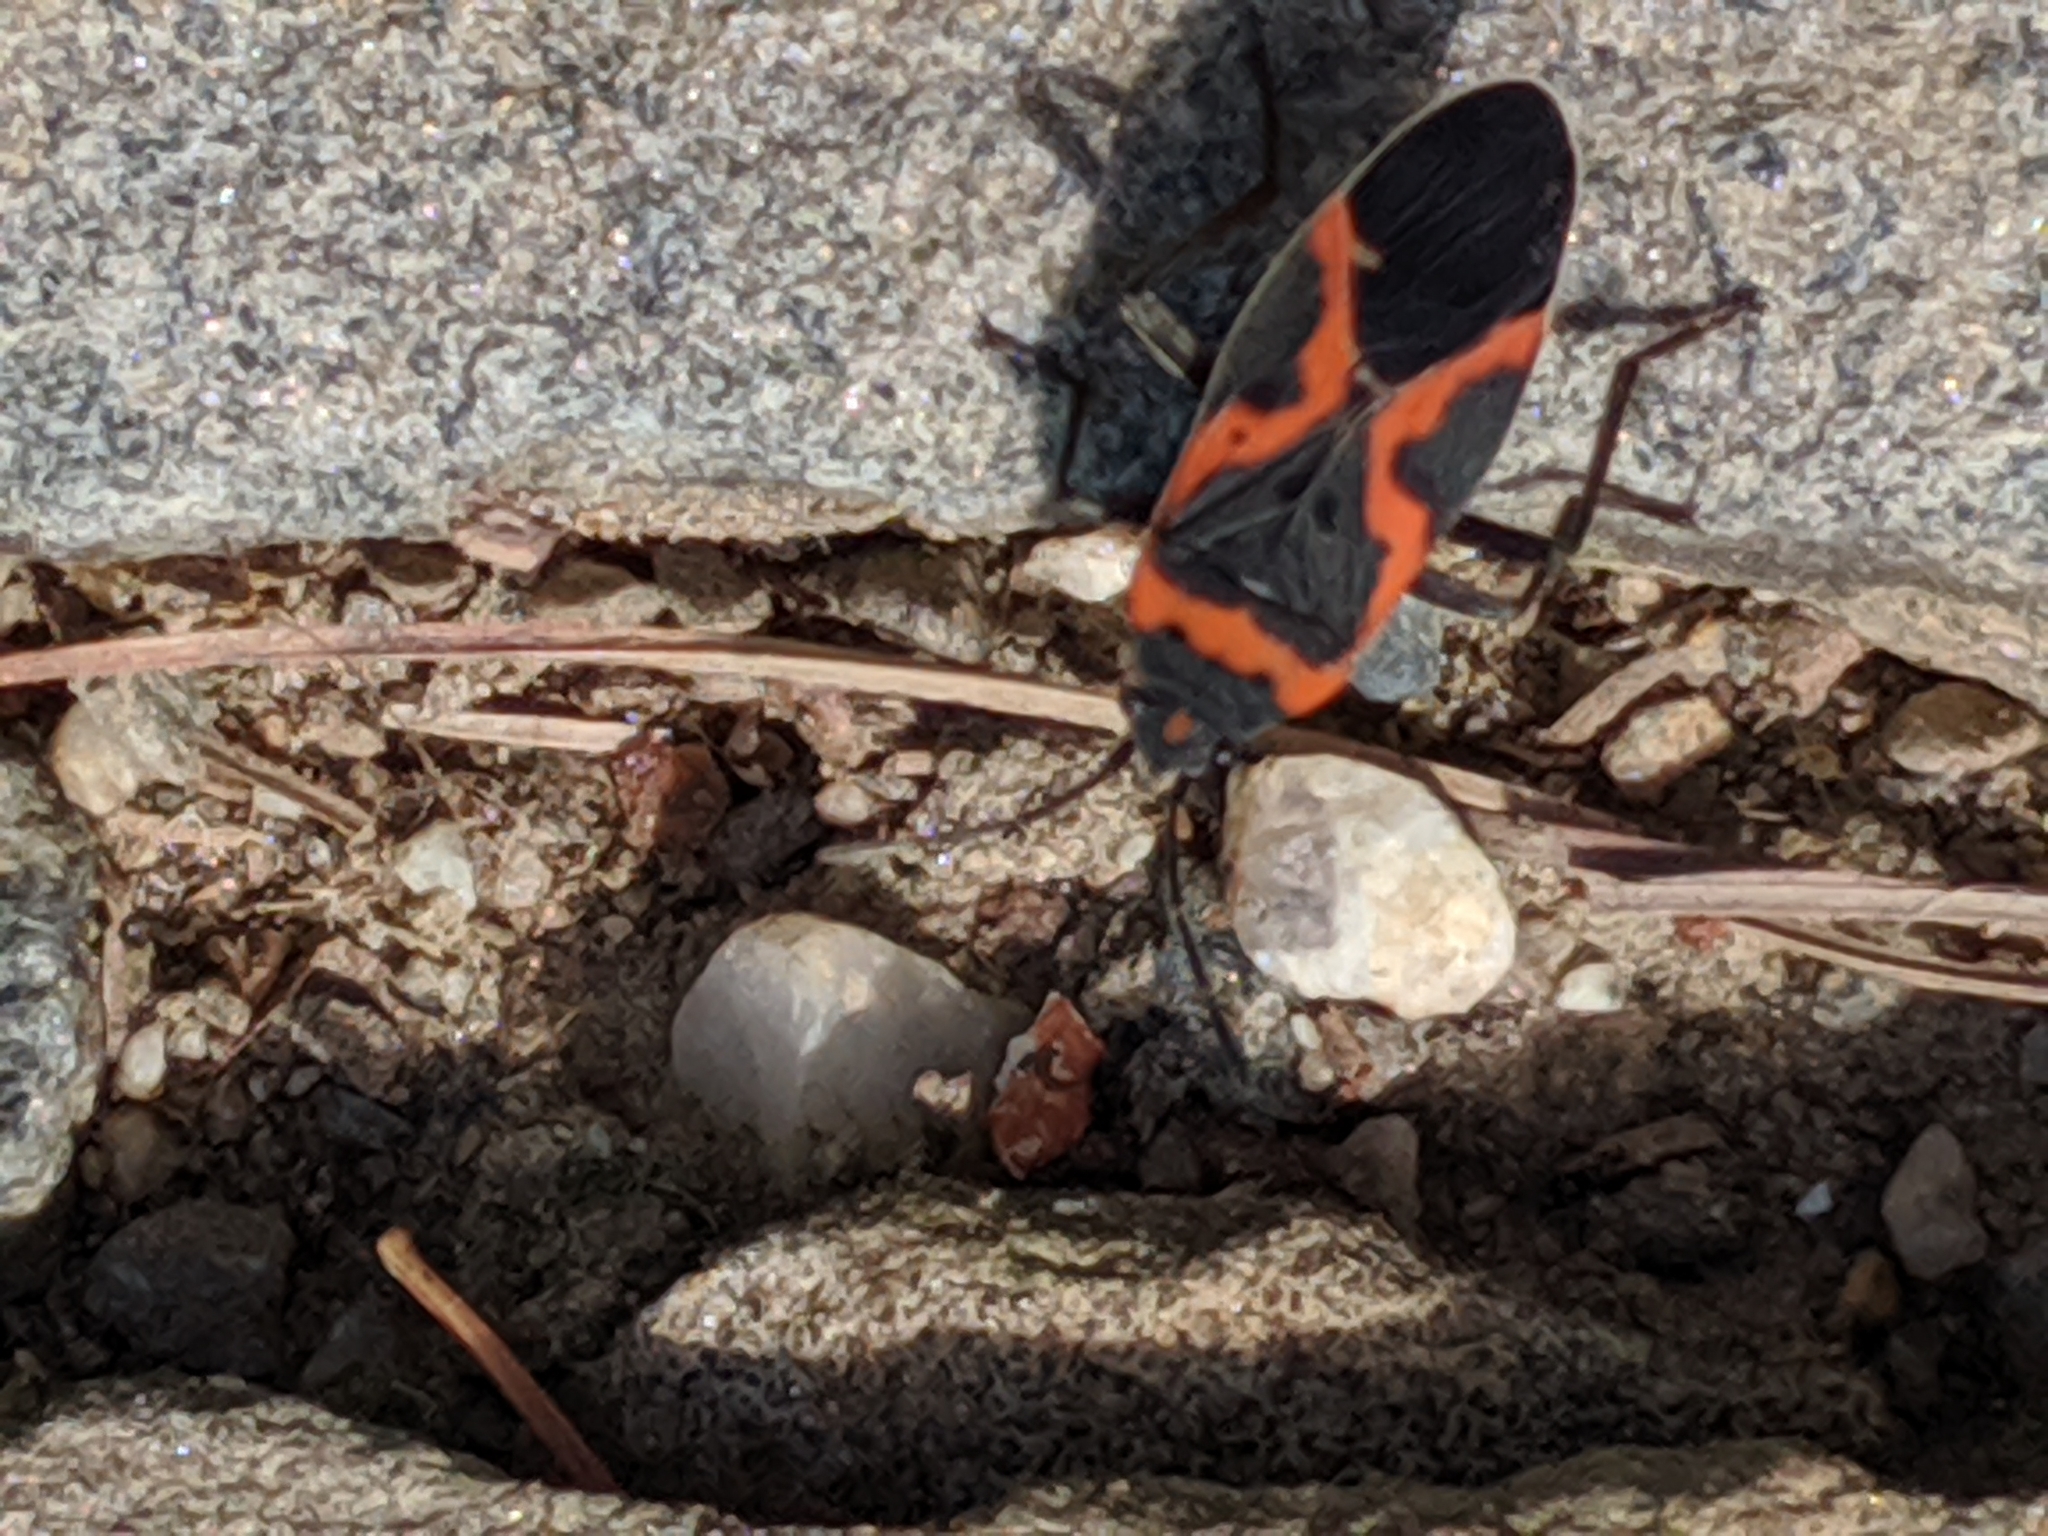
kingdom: Animalia
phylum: Arthropoda
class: Insecta
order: Hemiptera
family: Lygaeidae
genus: Lygaeus
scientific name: Lygaeus kalmii
